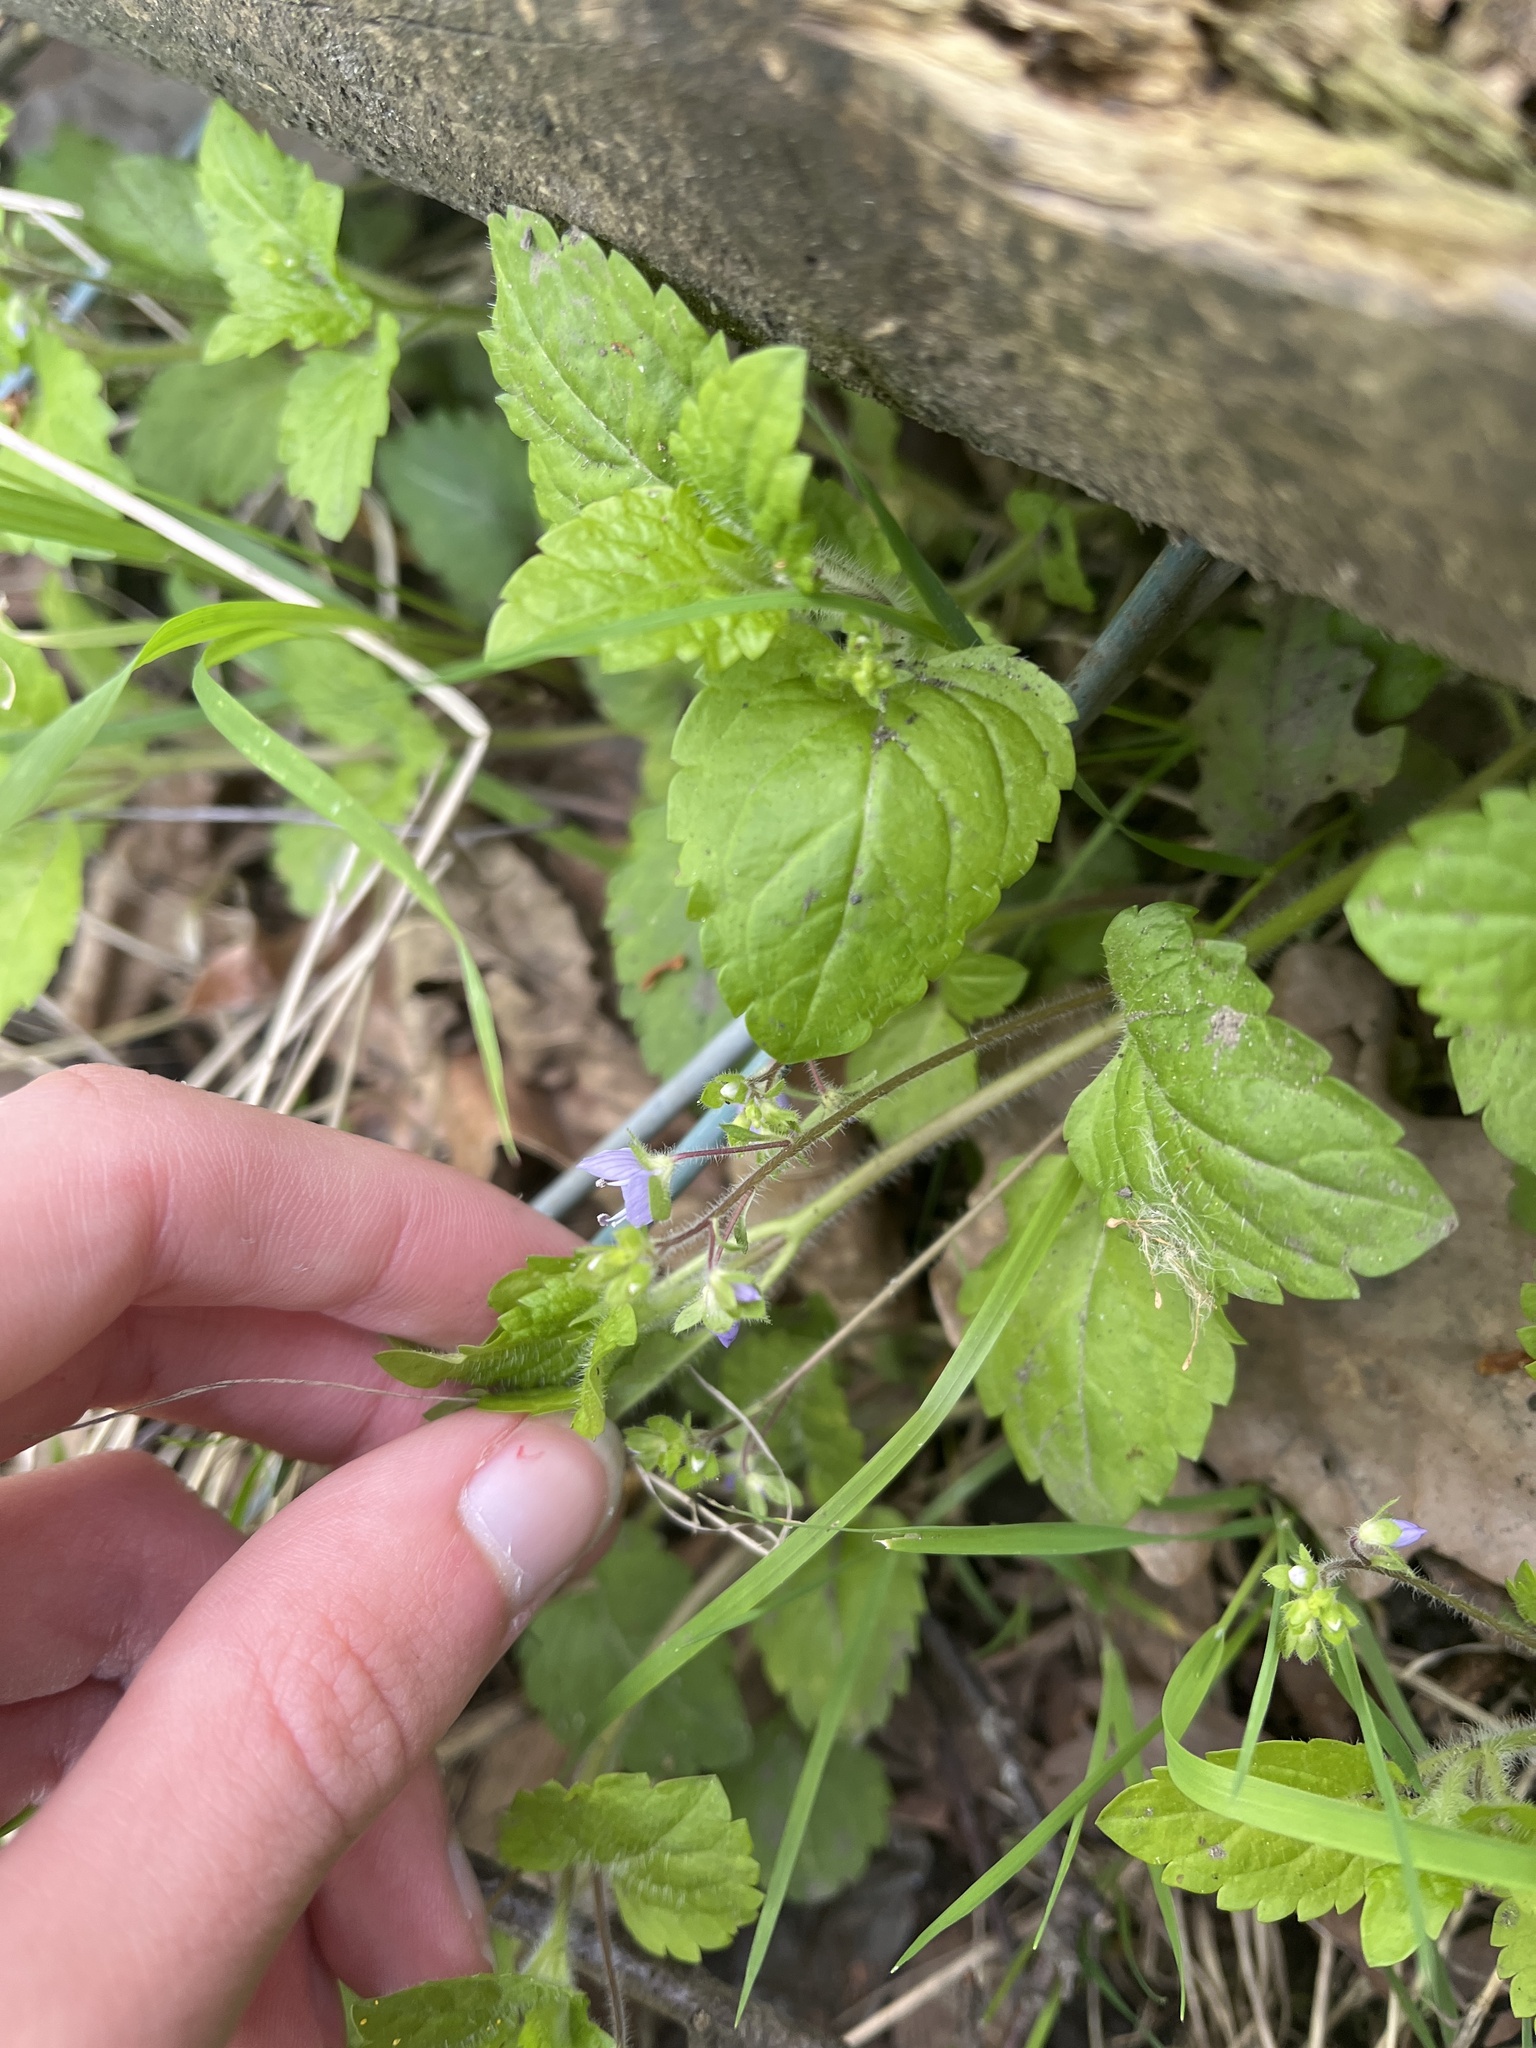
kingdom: Plantae
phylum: Tracheophyta
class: Magnoliopsida
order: Lamiales
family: Plantaginaceae
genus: Veronica
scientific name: Veronica montana
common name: Wood speedwell
